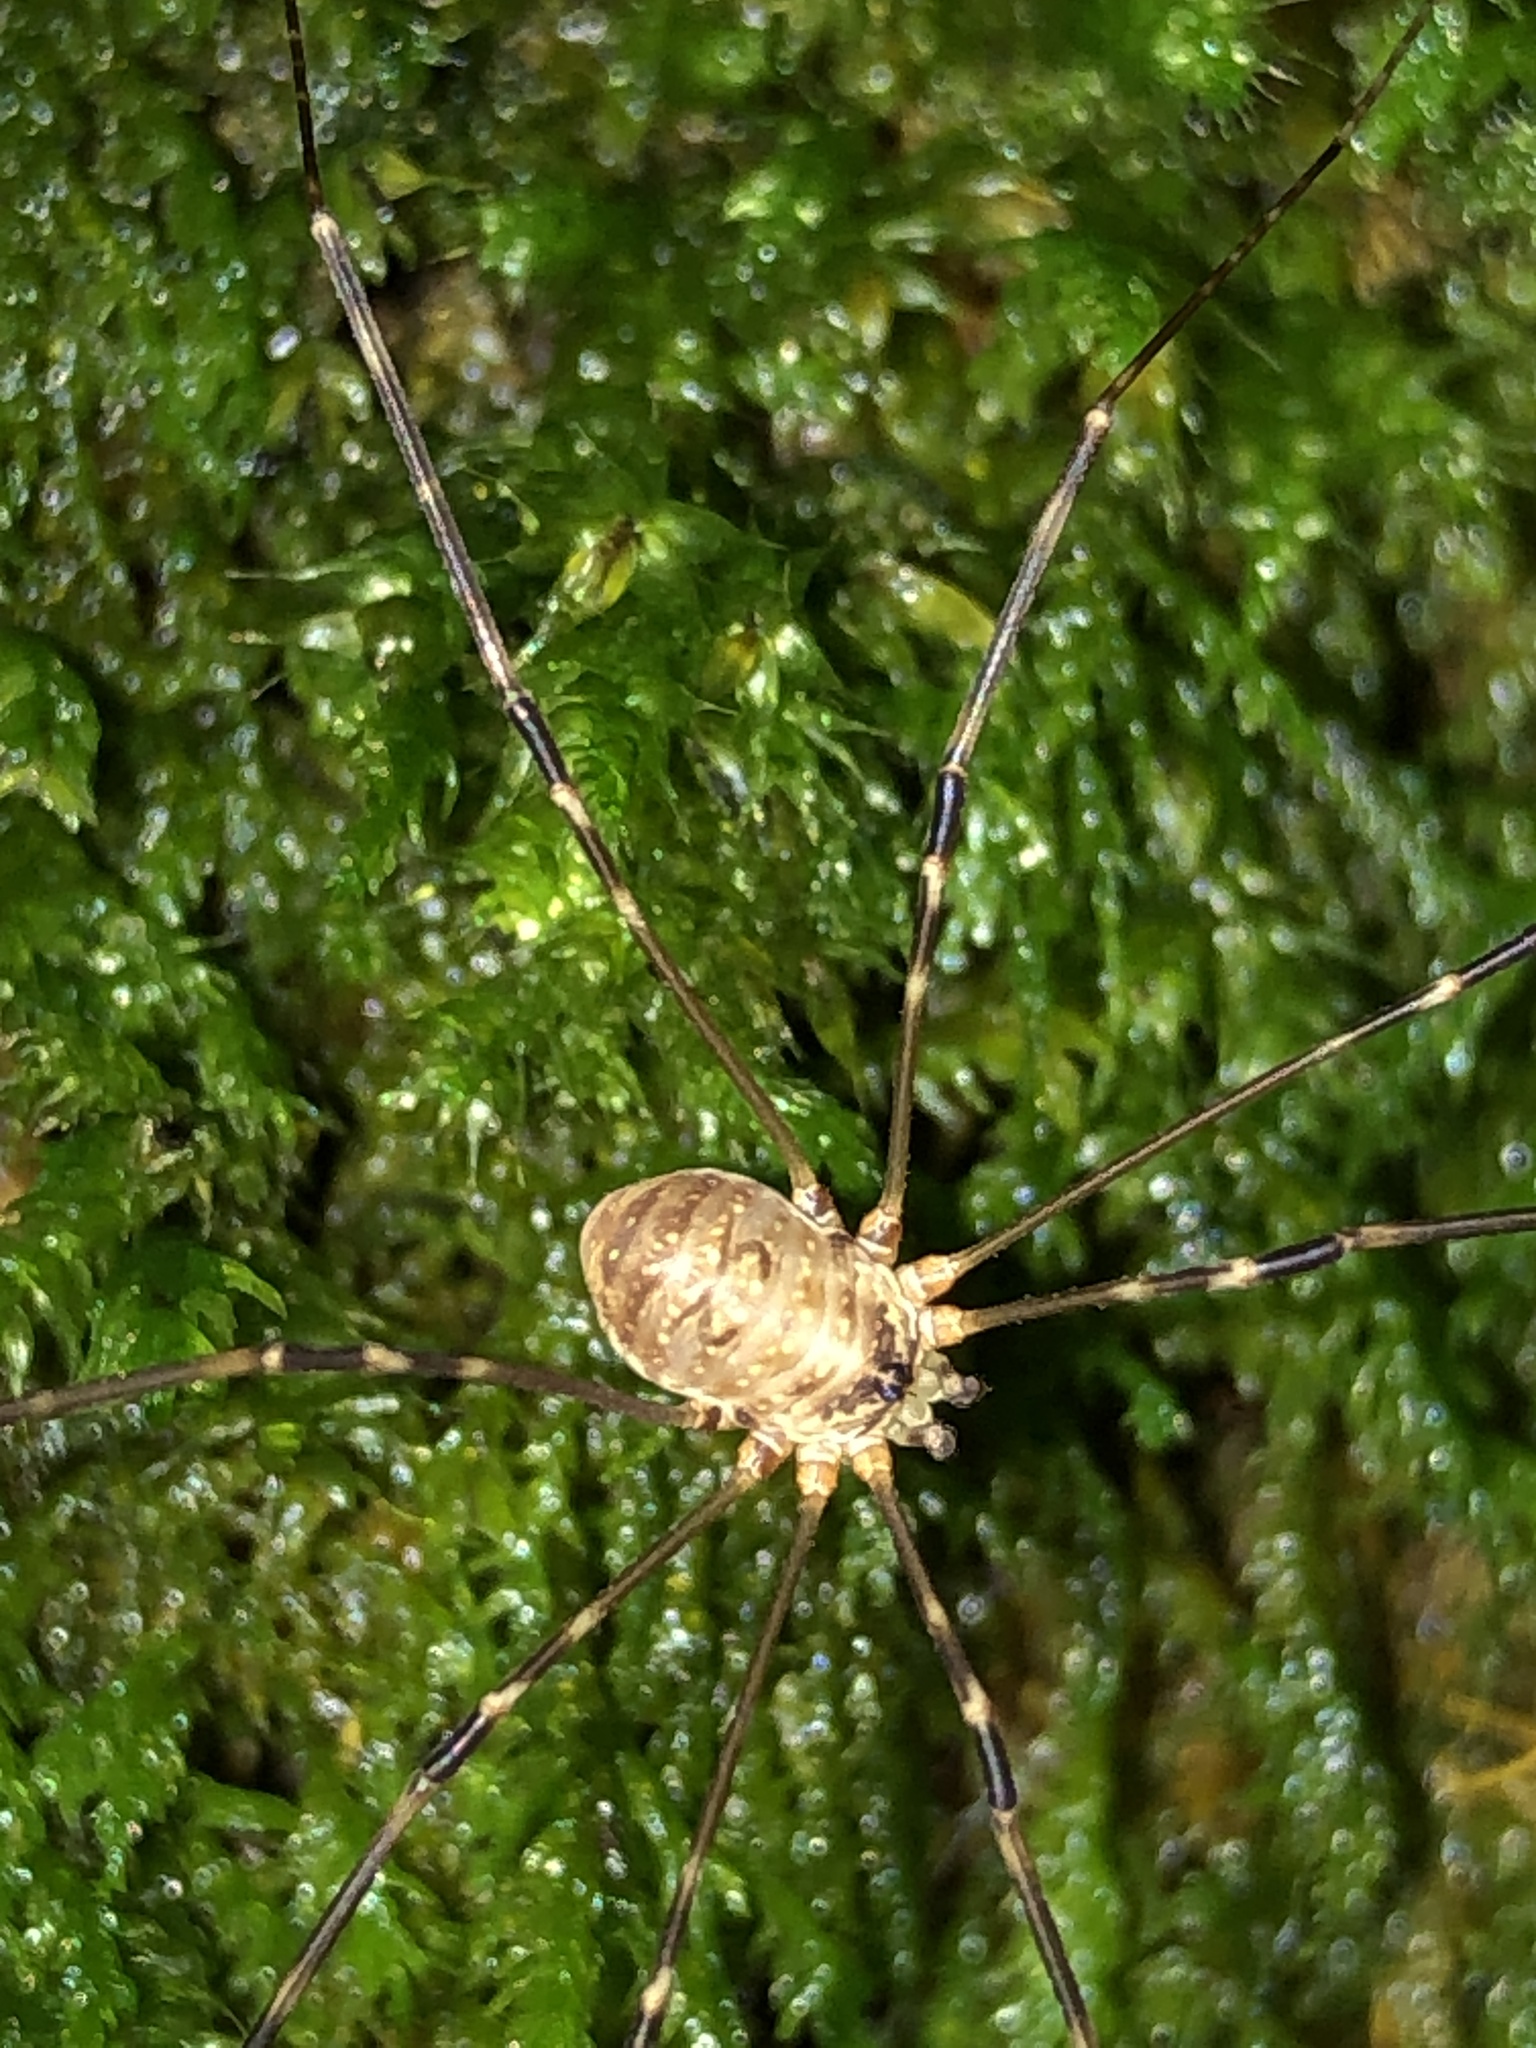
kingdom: Animalia
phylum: Arthropoda
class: Arachnida
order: Opiliones
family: Phalangiidae
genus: Amilenus
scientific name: Amilenus aurantiacus
